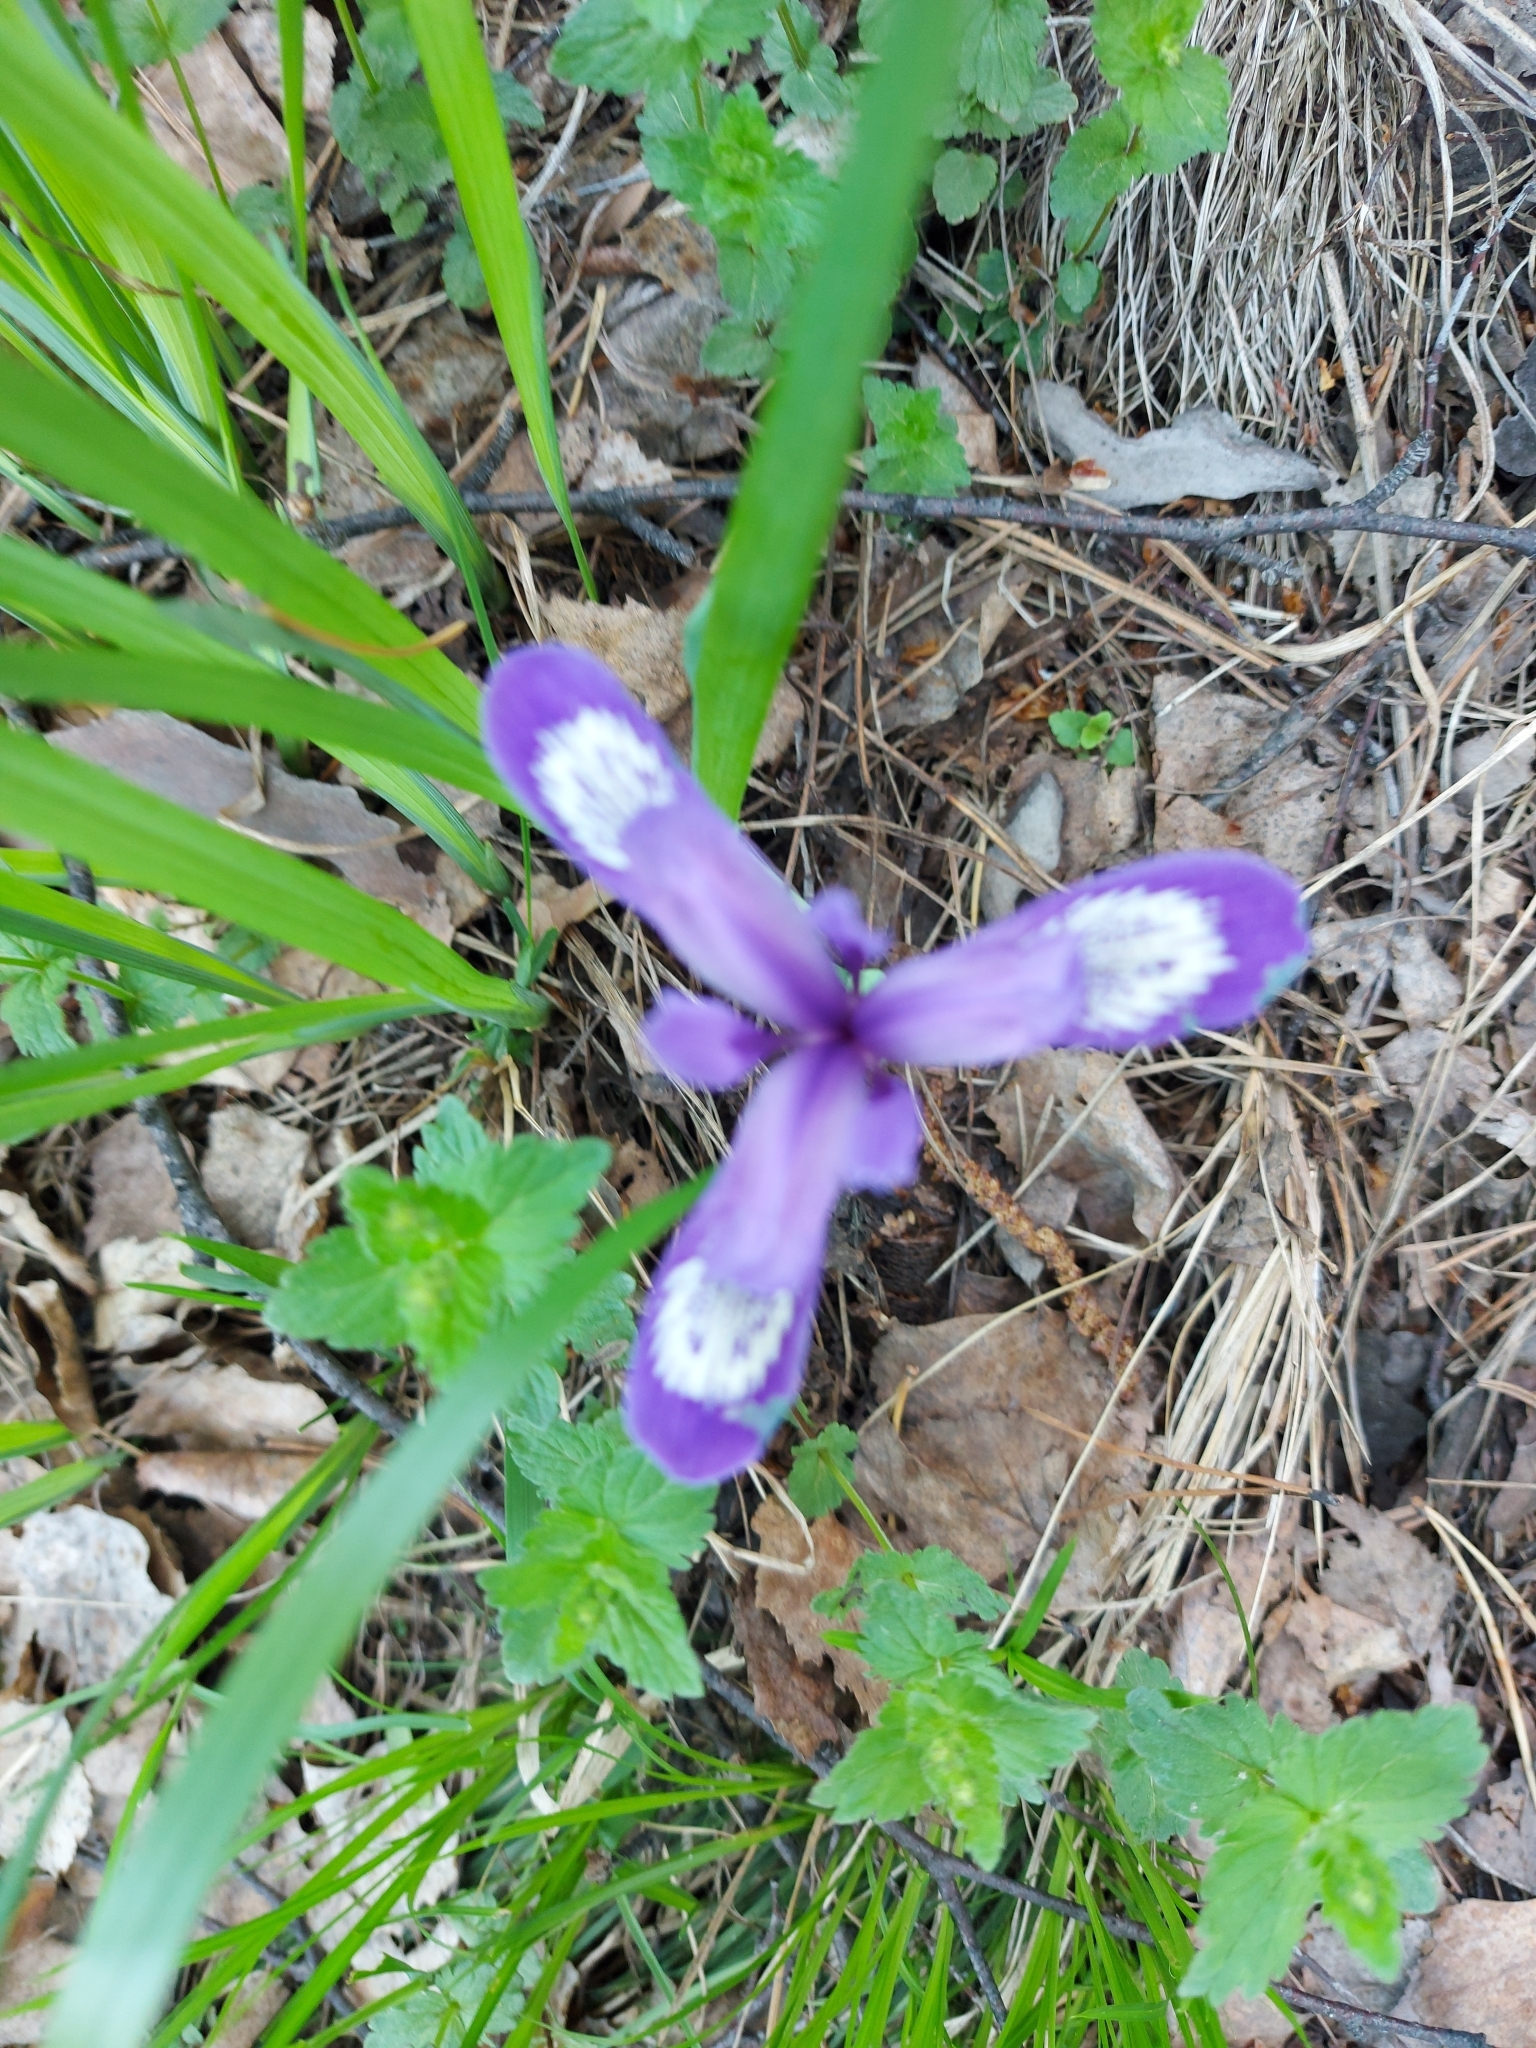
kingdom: Plantae
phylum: Tracheophyta
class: Liliopsida
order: Asparagales
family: Iridaceae
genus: Iris
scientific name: Iris ruthenica
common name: Purple-bract iris
